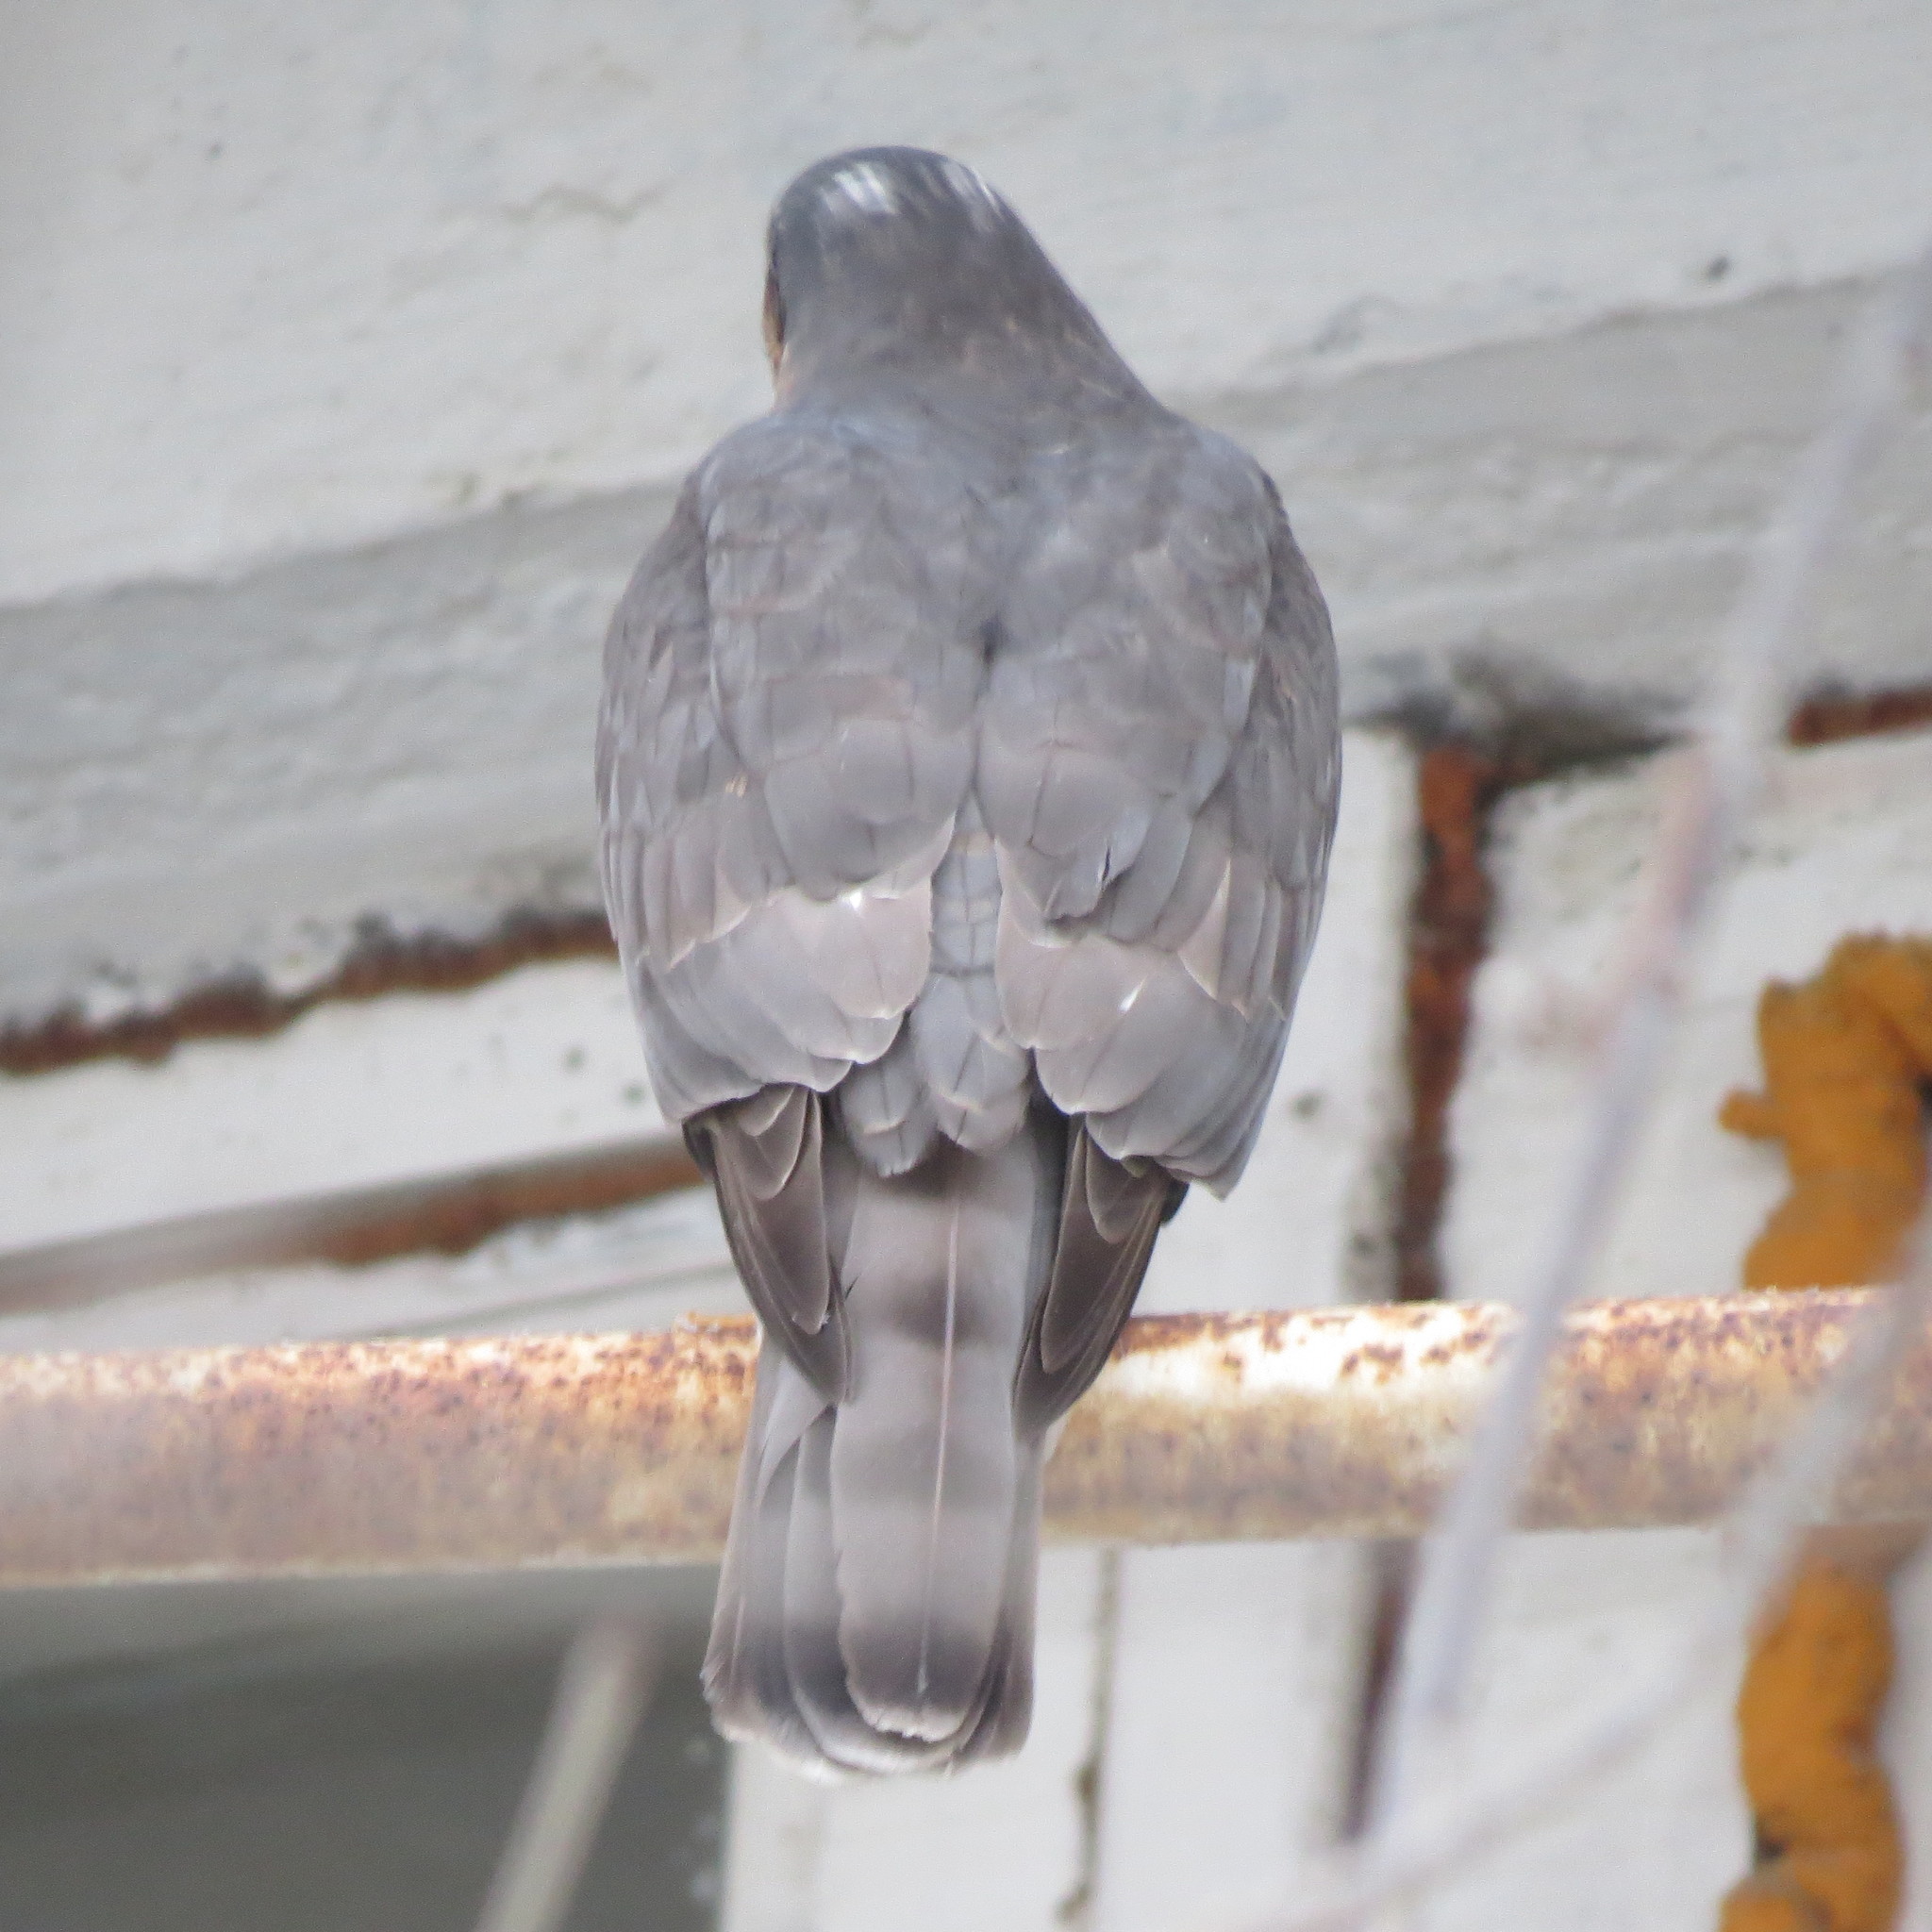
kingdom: Animalia
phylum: Chordata
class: Aves
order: Accipitriformes
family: Accipitridae
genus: Accipiter
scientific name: Accipiter nisus
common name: Eurasian sparrowhawk
